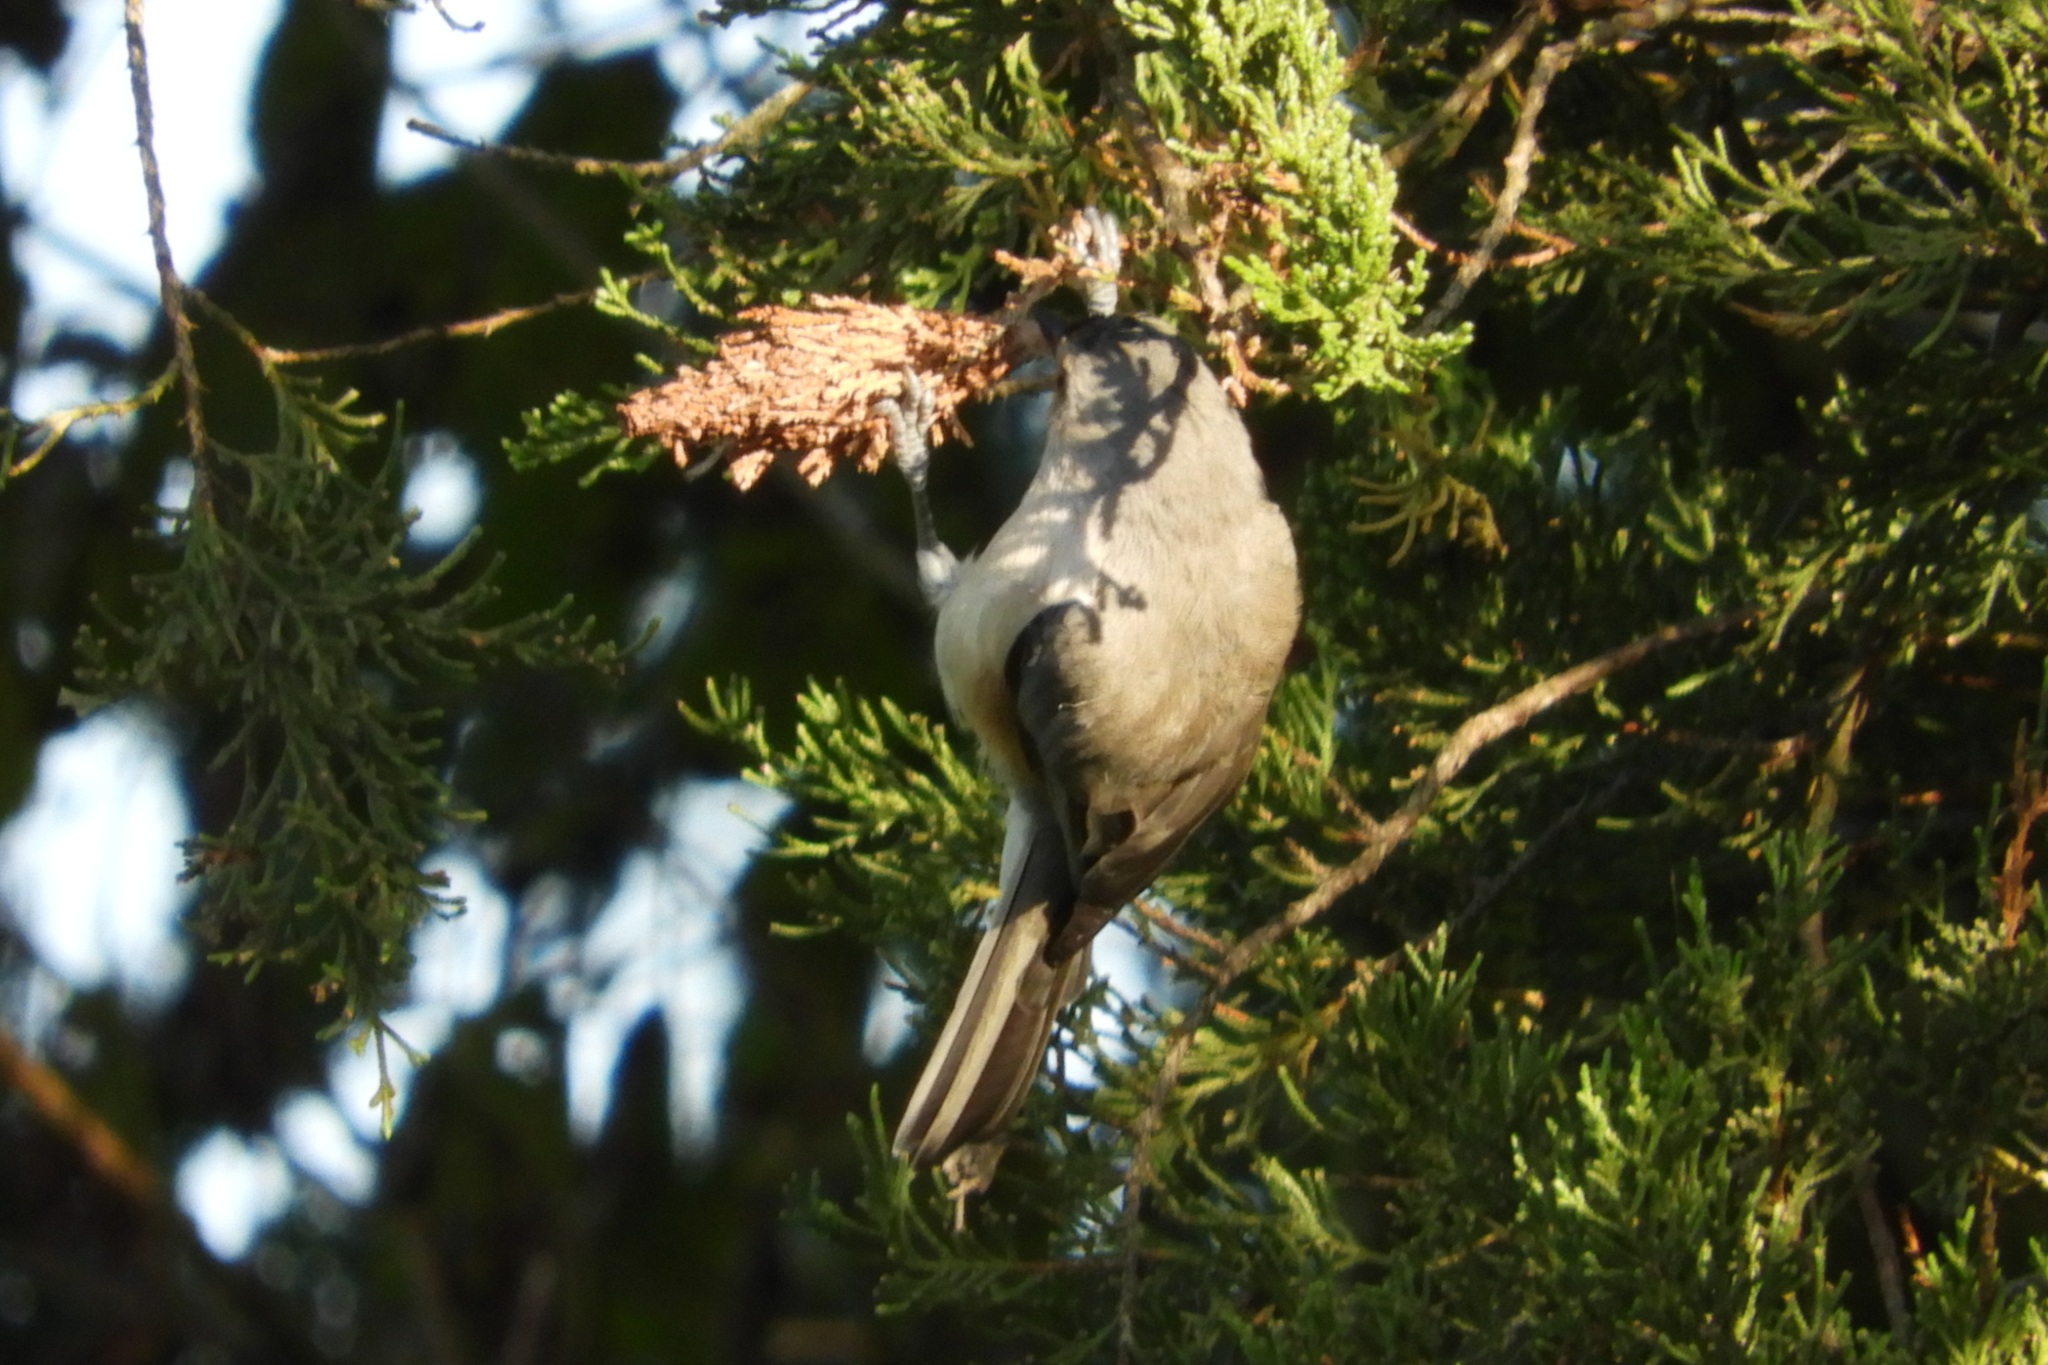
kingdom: Animalia
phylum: Chordata
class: Aves
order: Passeriformes
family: Paridae
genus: Baeolophus
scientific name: Baeolophus bicolor
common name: Tufted titmouse
